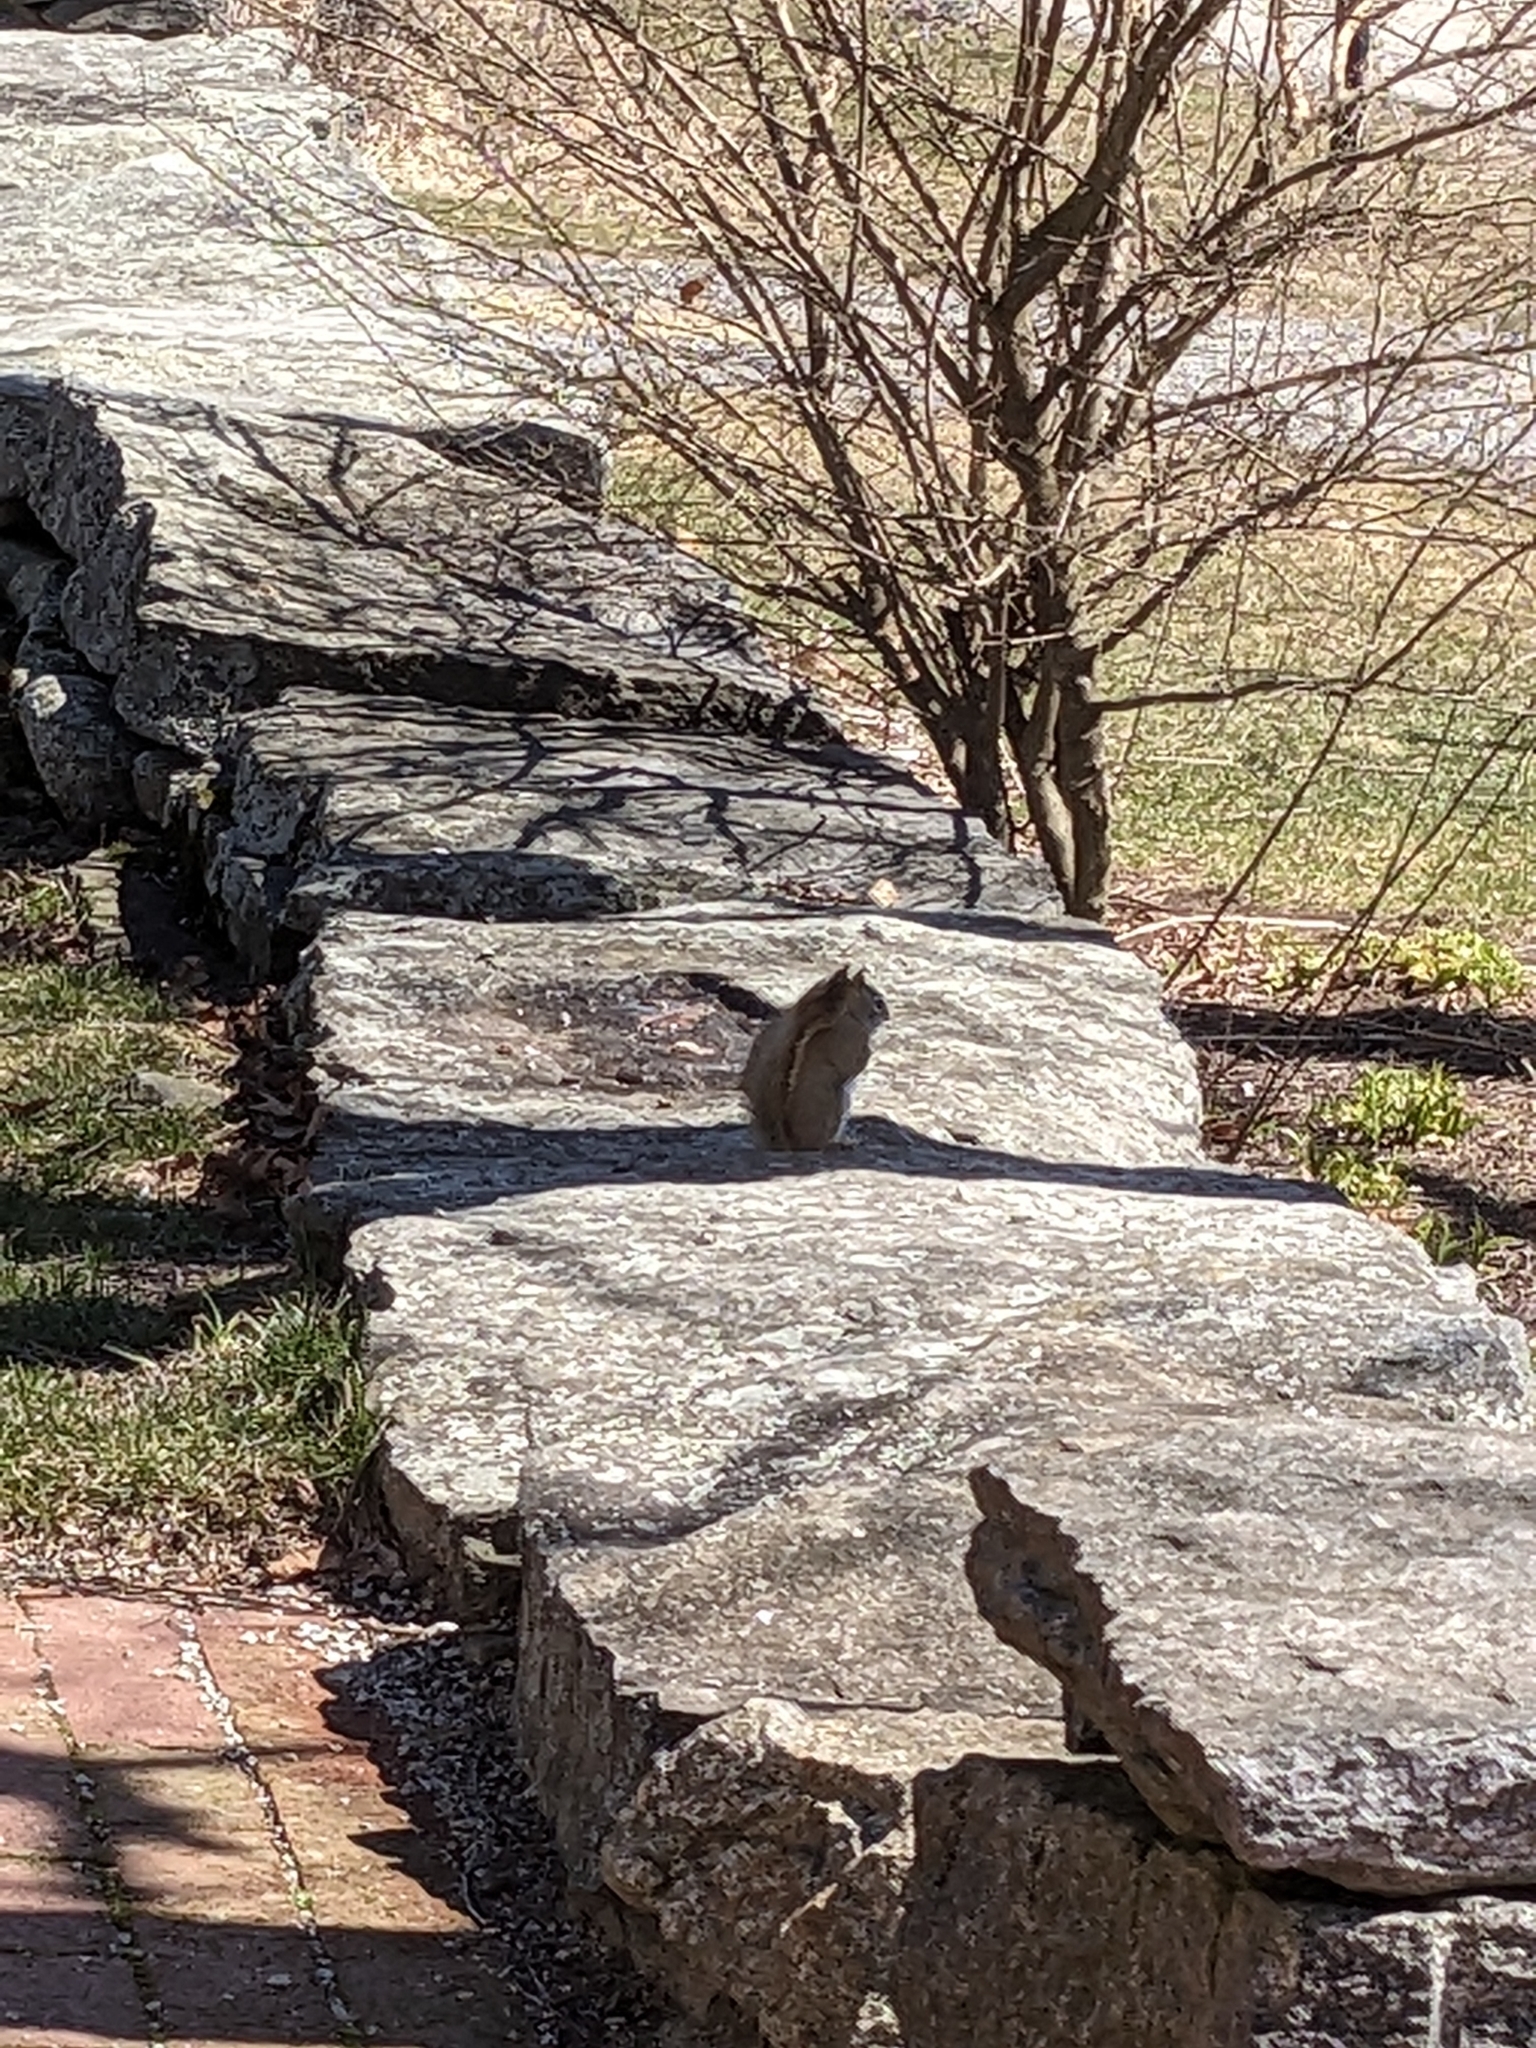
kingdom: Animalia
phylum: Chordata
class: Mammalia
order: Rodentia
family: Sciuridae
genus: Tamiasciurus
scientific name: Tamiasciurus hudsonicus
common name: Red squirrel
